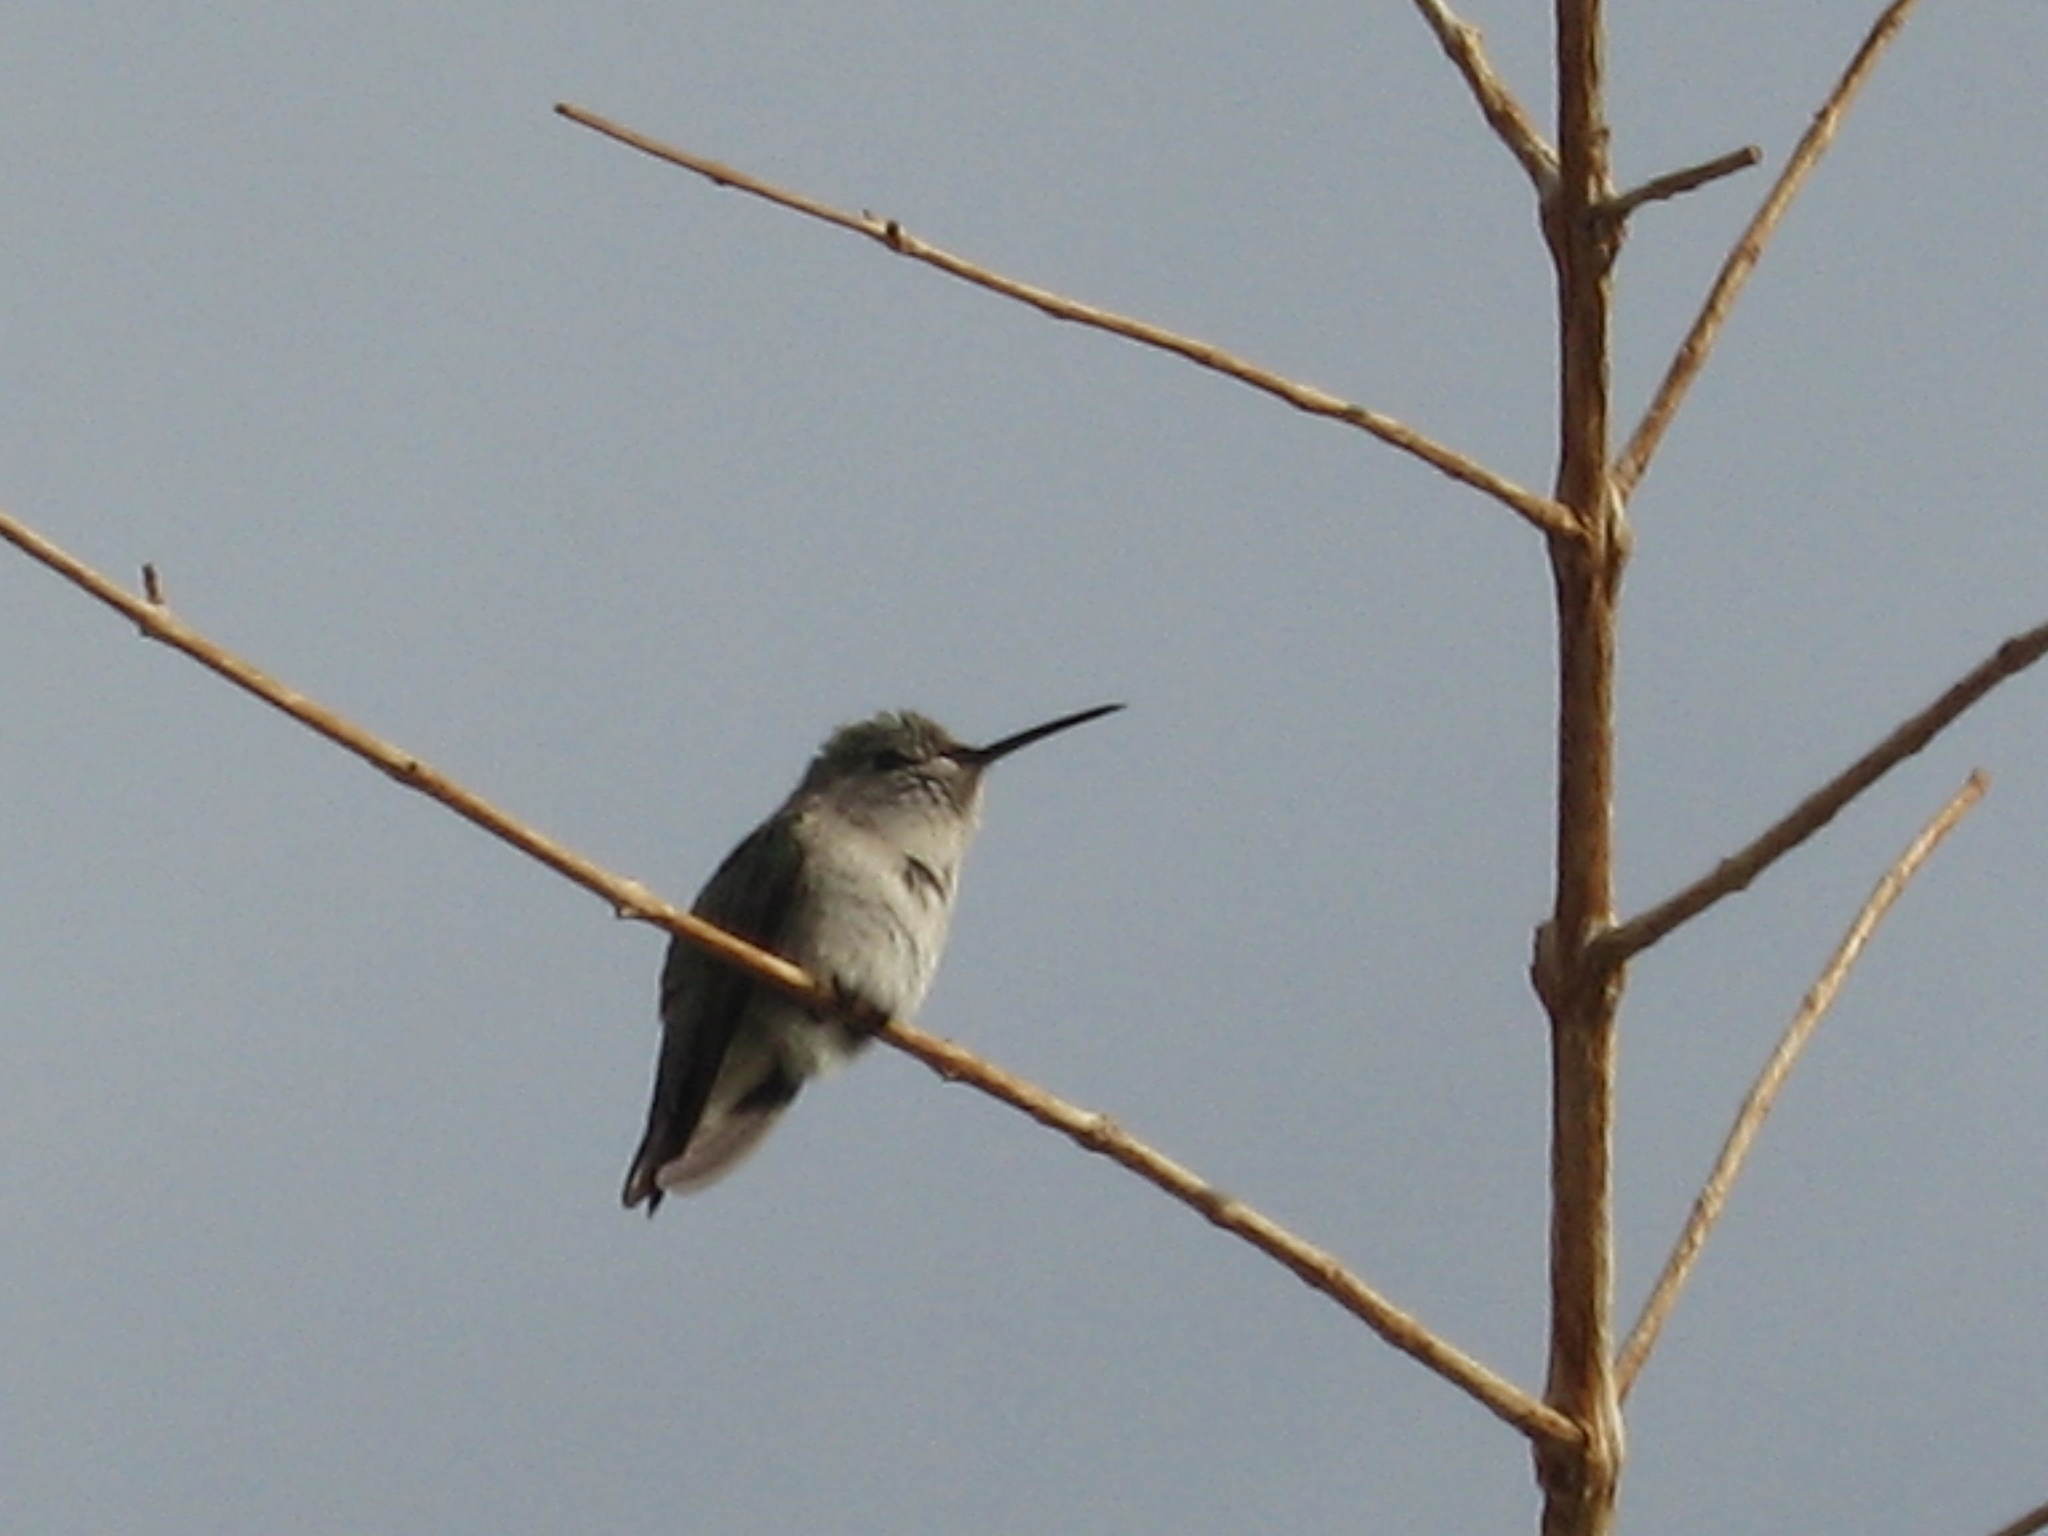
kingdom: Animalia
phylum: Chordata
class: Aves
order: Apodiformes
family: Trochilidae
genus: Calypte
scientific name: Calypte costae
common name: Costa's hummingbird
